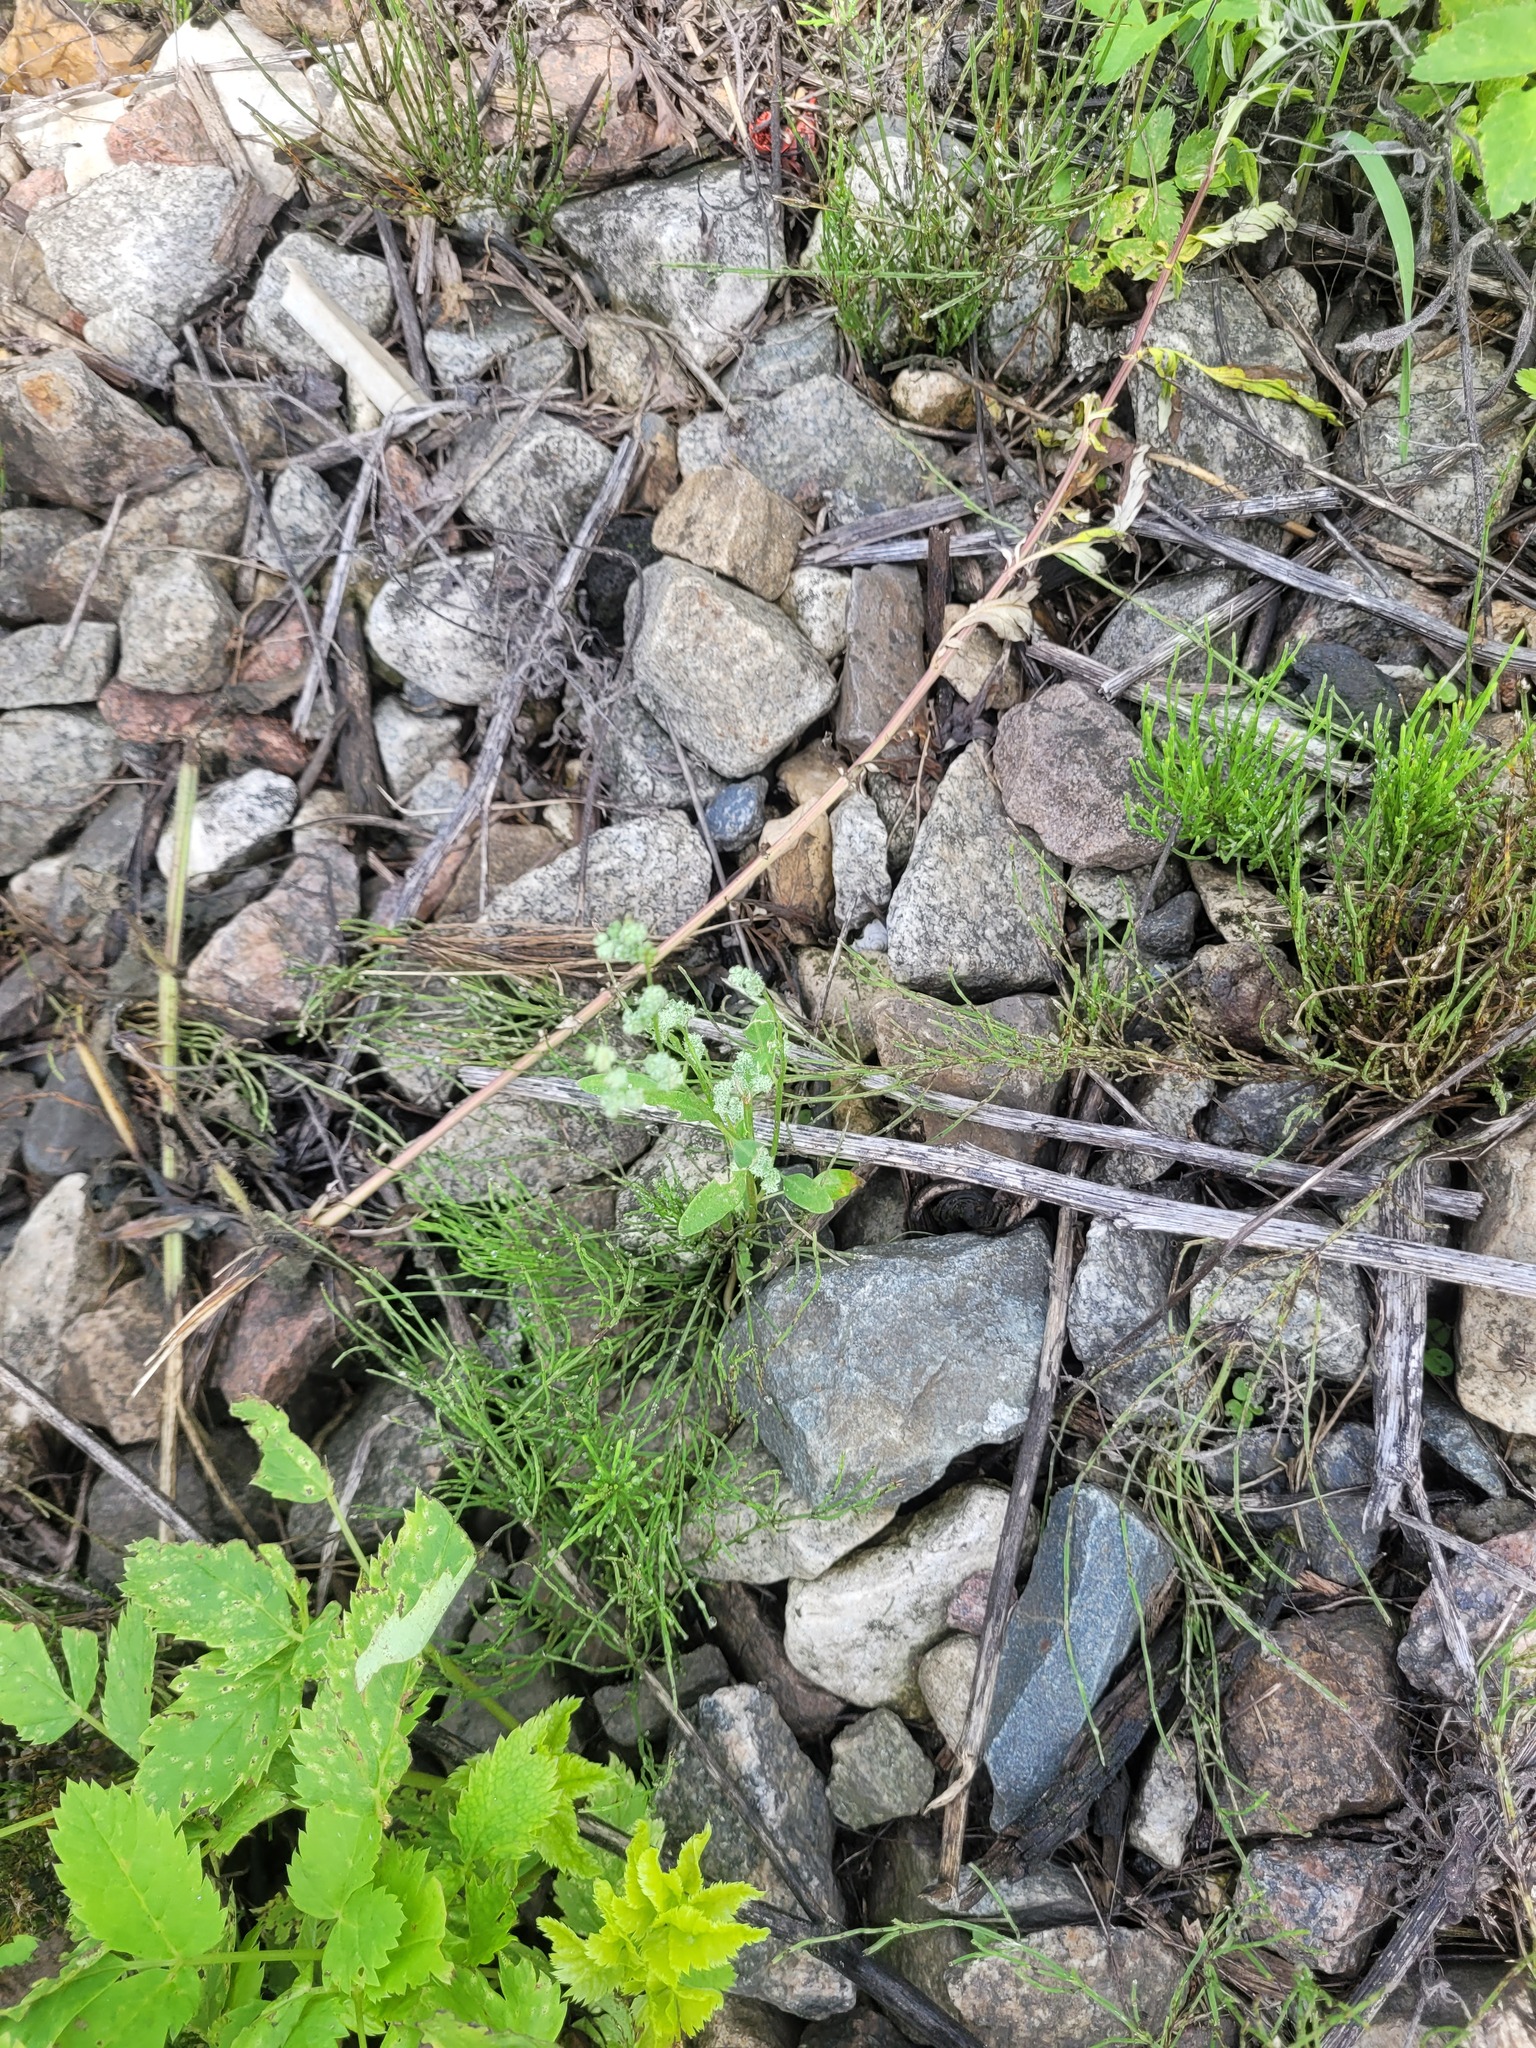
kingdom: Plantae
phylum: Tracheophyta
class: Magnoliopsida
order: Caryophyllales
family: Amaranthaceae
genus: Chenopodium
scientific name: Chenopodium album
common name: Fat-hen
